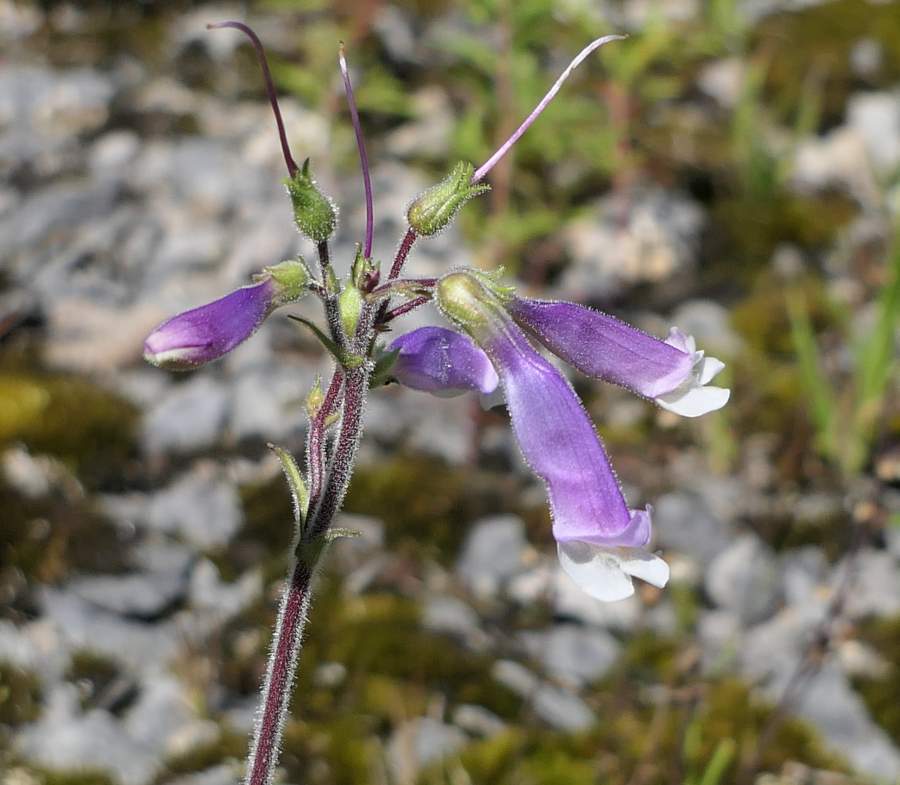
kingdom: Plantae
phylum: Tracheophyta
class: Magnoliopsida
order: Lamiales
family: Plantaginaceae
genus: Penstemon
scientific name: Penstemon hirsutus
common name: Hairy beardtongue
